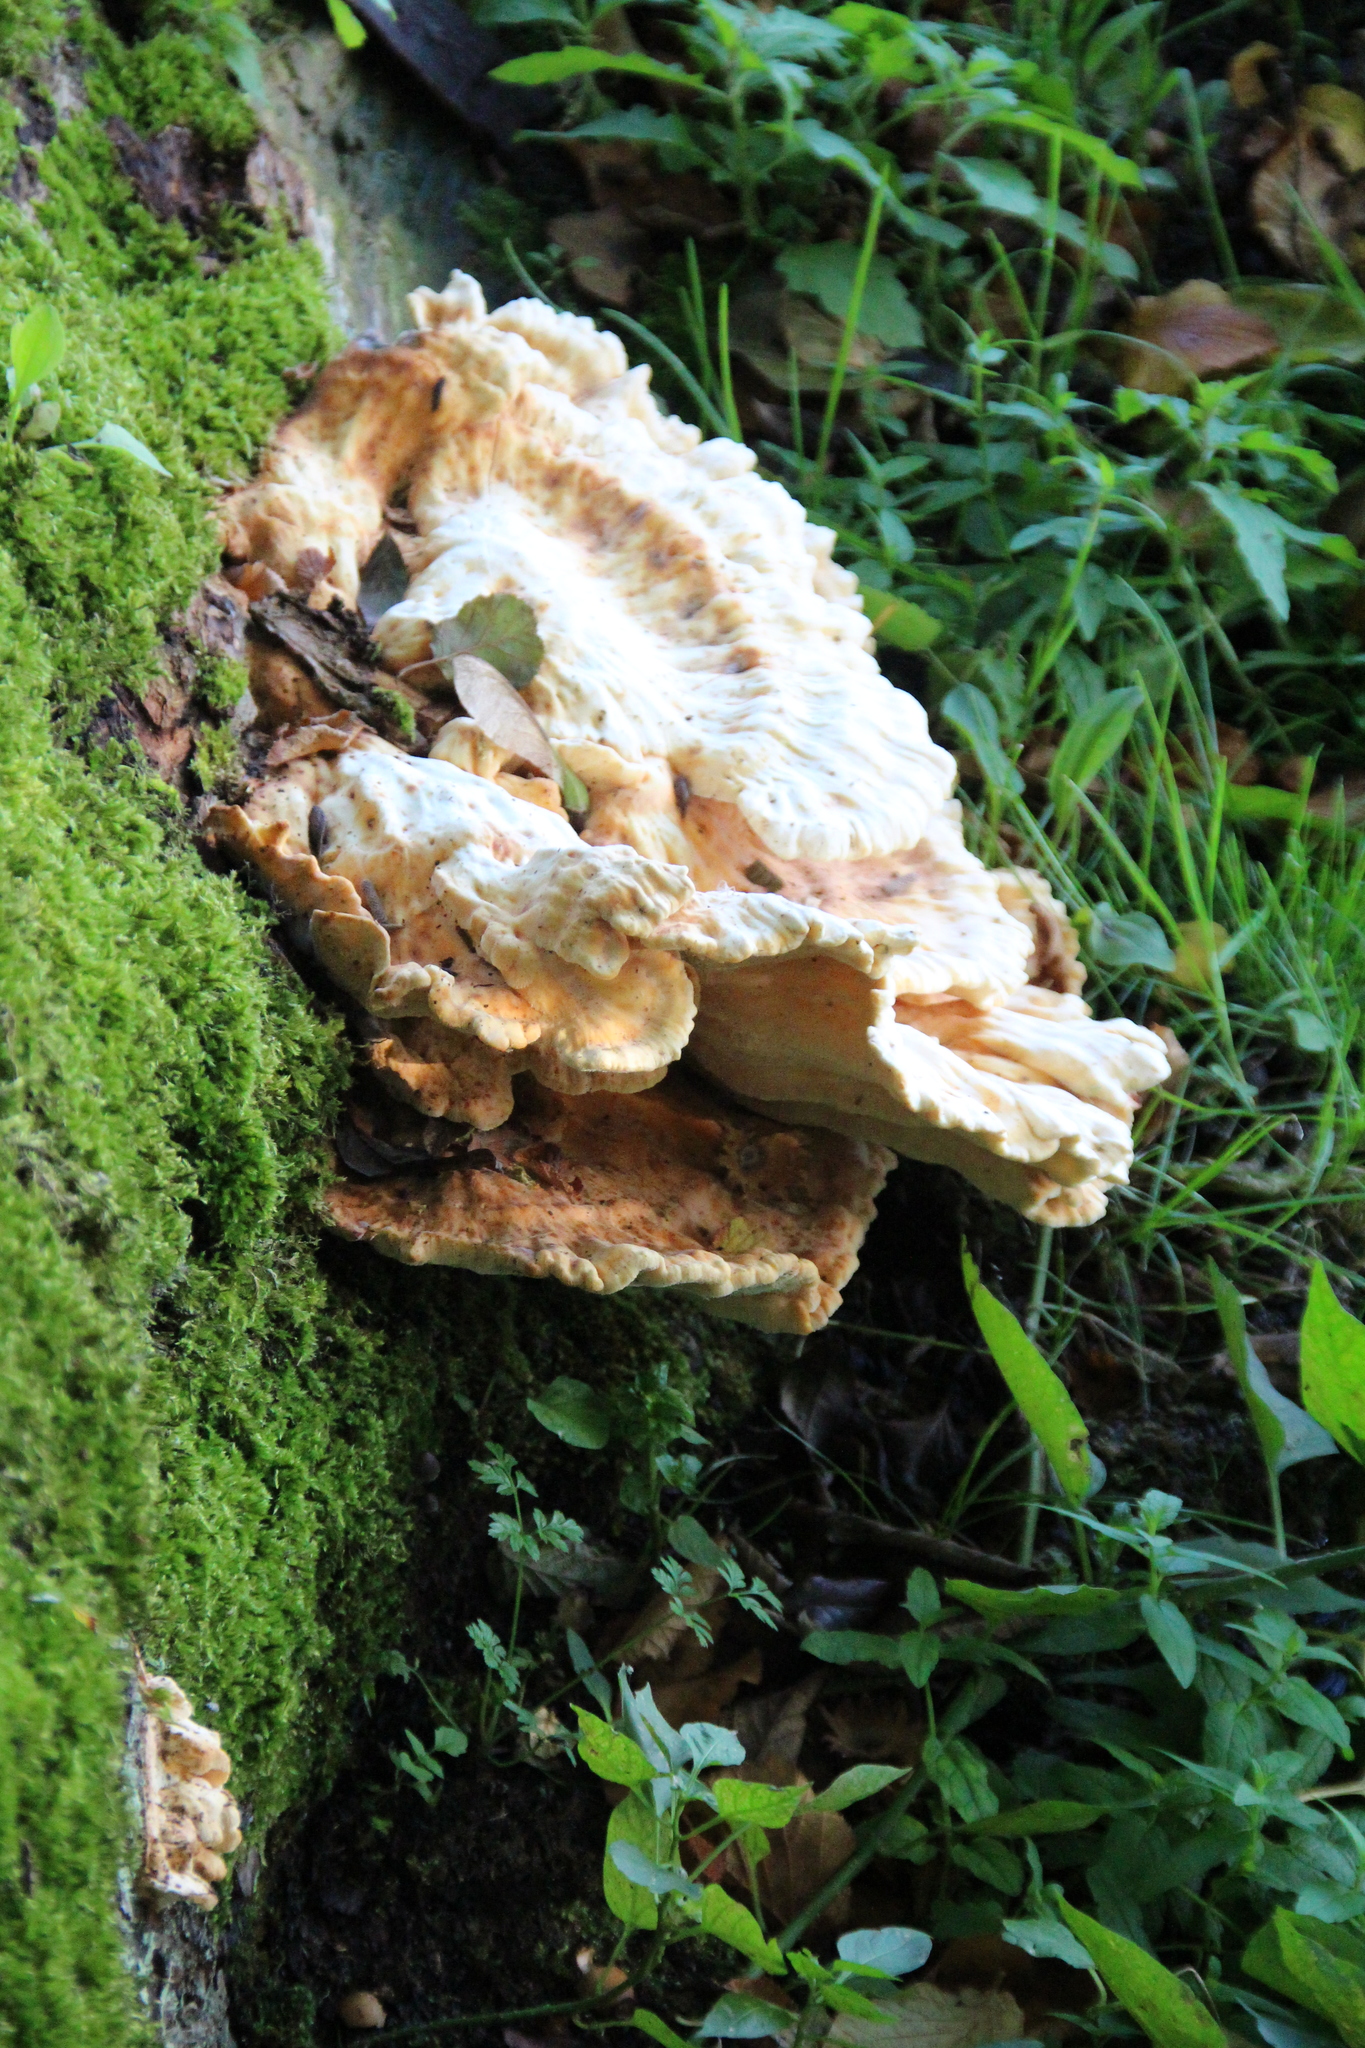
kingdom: Fungi
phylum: Basidiomycota
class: Agaricomycetes
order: Polyporales
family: Laetiporaceae
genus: Laetiporus
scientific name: Laetiporus sulphureus
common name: Chicken of the woods
